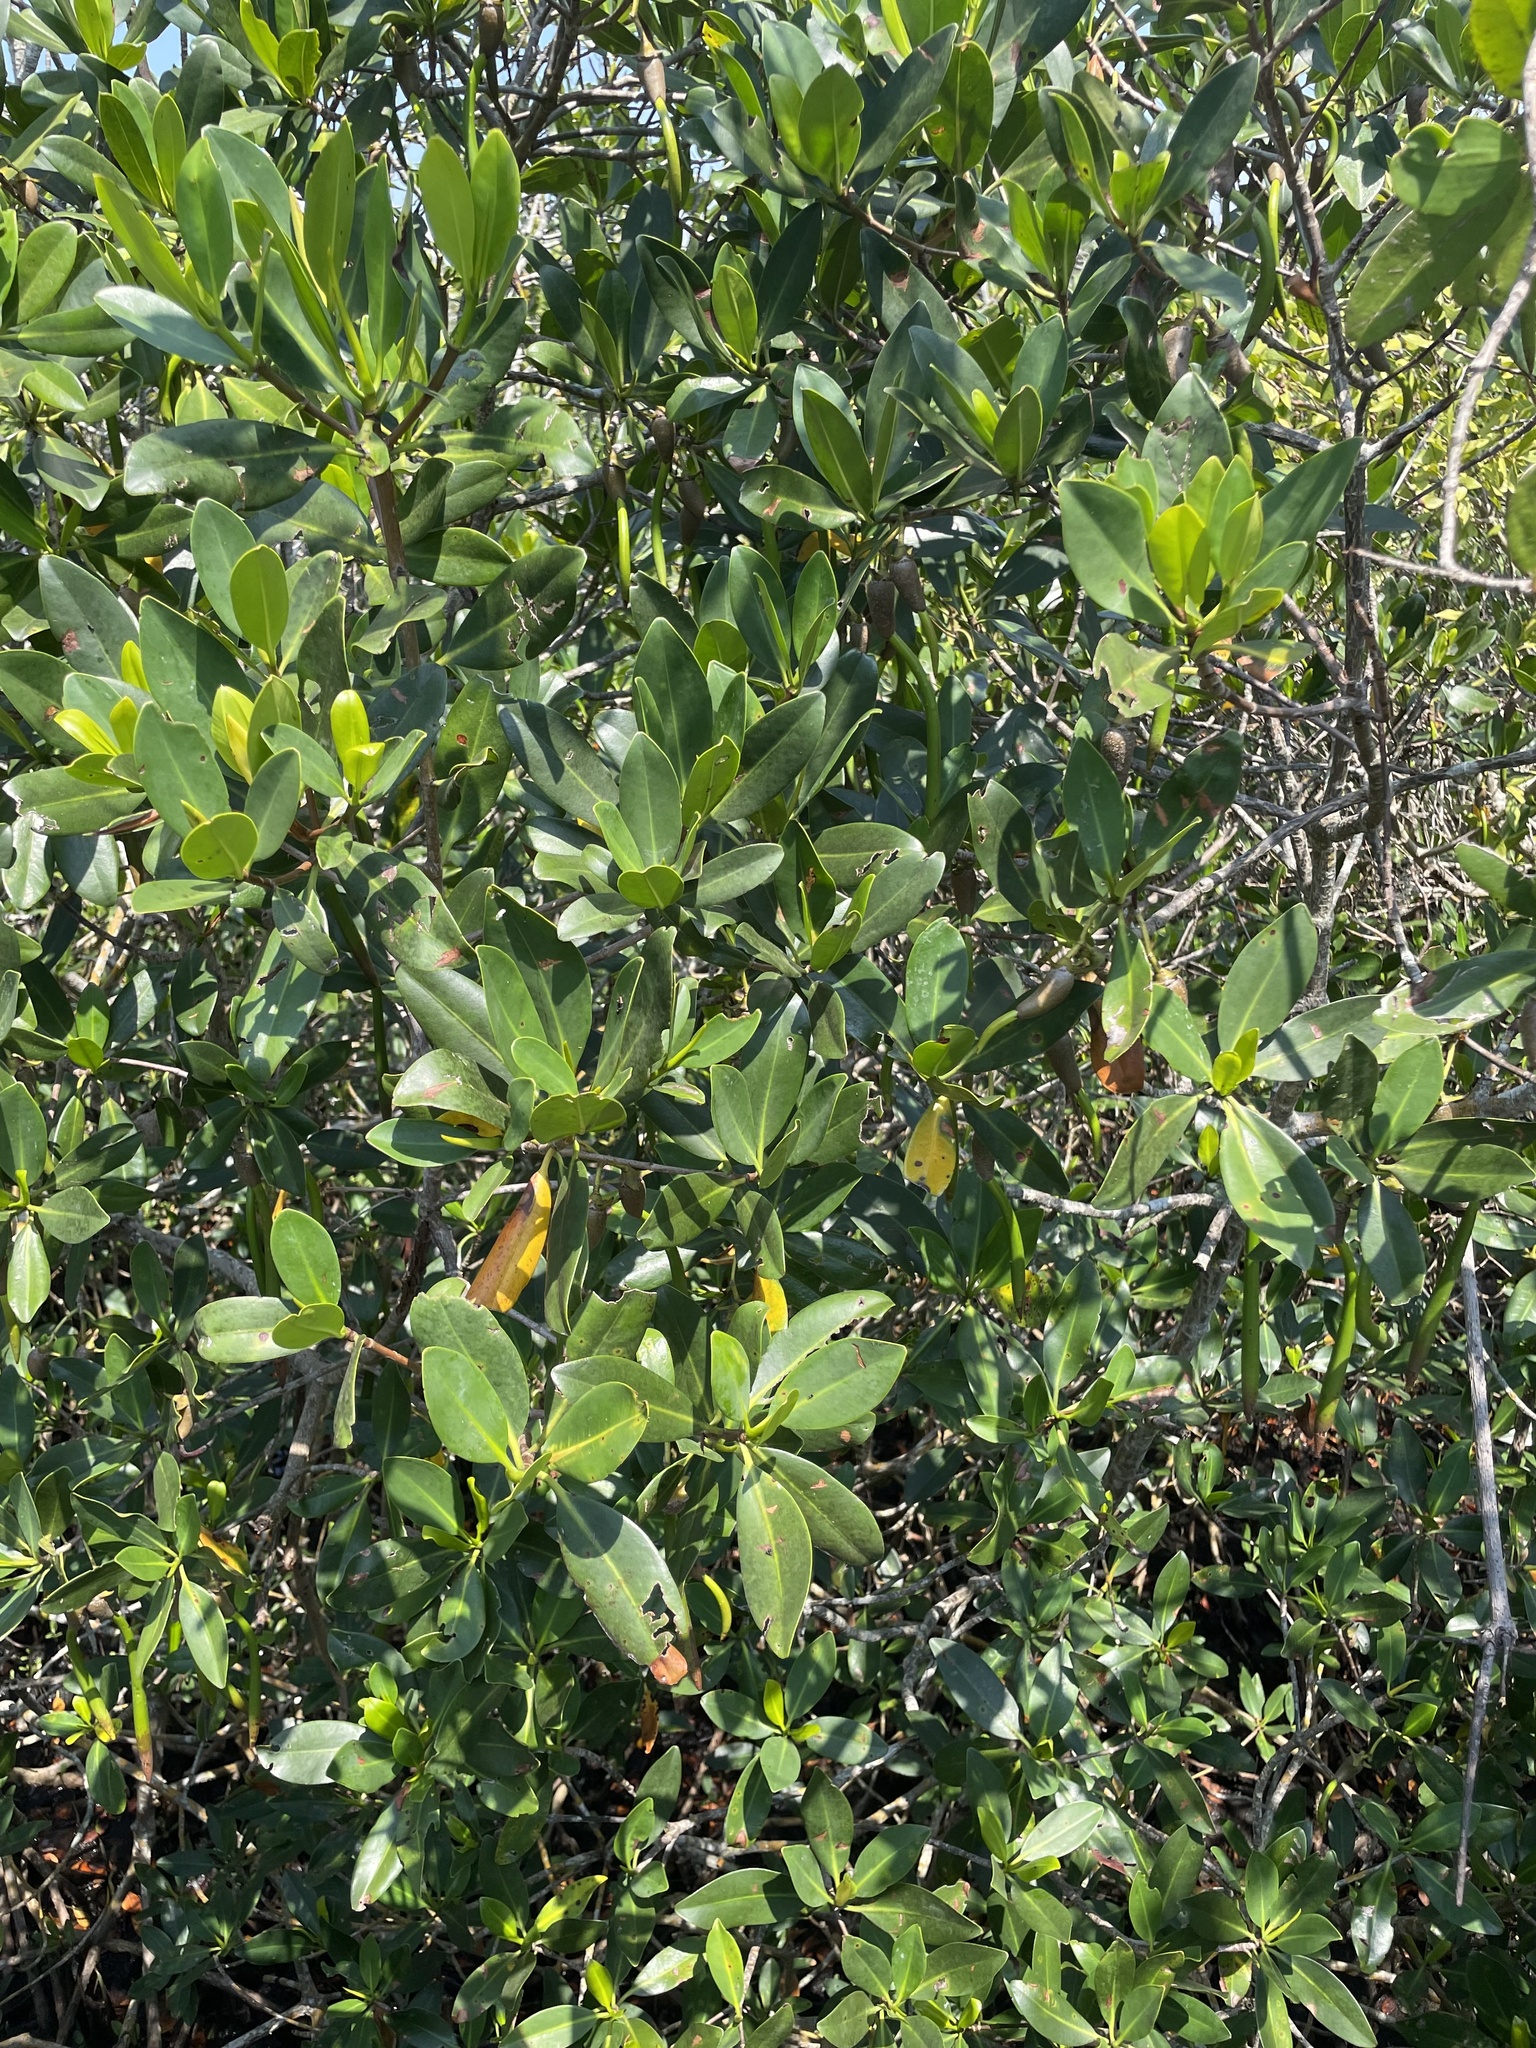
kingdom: Plantae
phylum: Tracheophyta
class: Magnoliopsida
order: Malpighiales
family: Rhizophoraceae
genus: Rhizophora
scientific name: Rhizophora mangle
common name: Red mangrove
